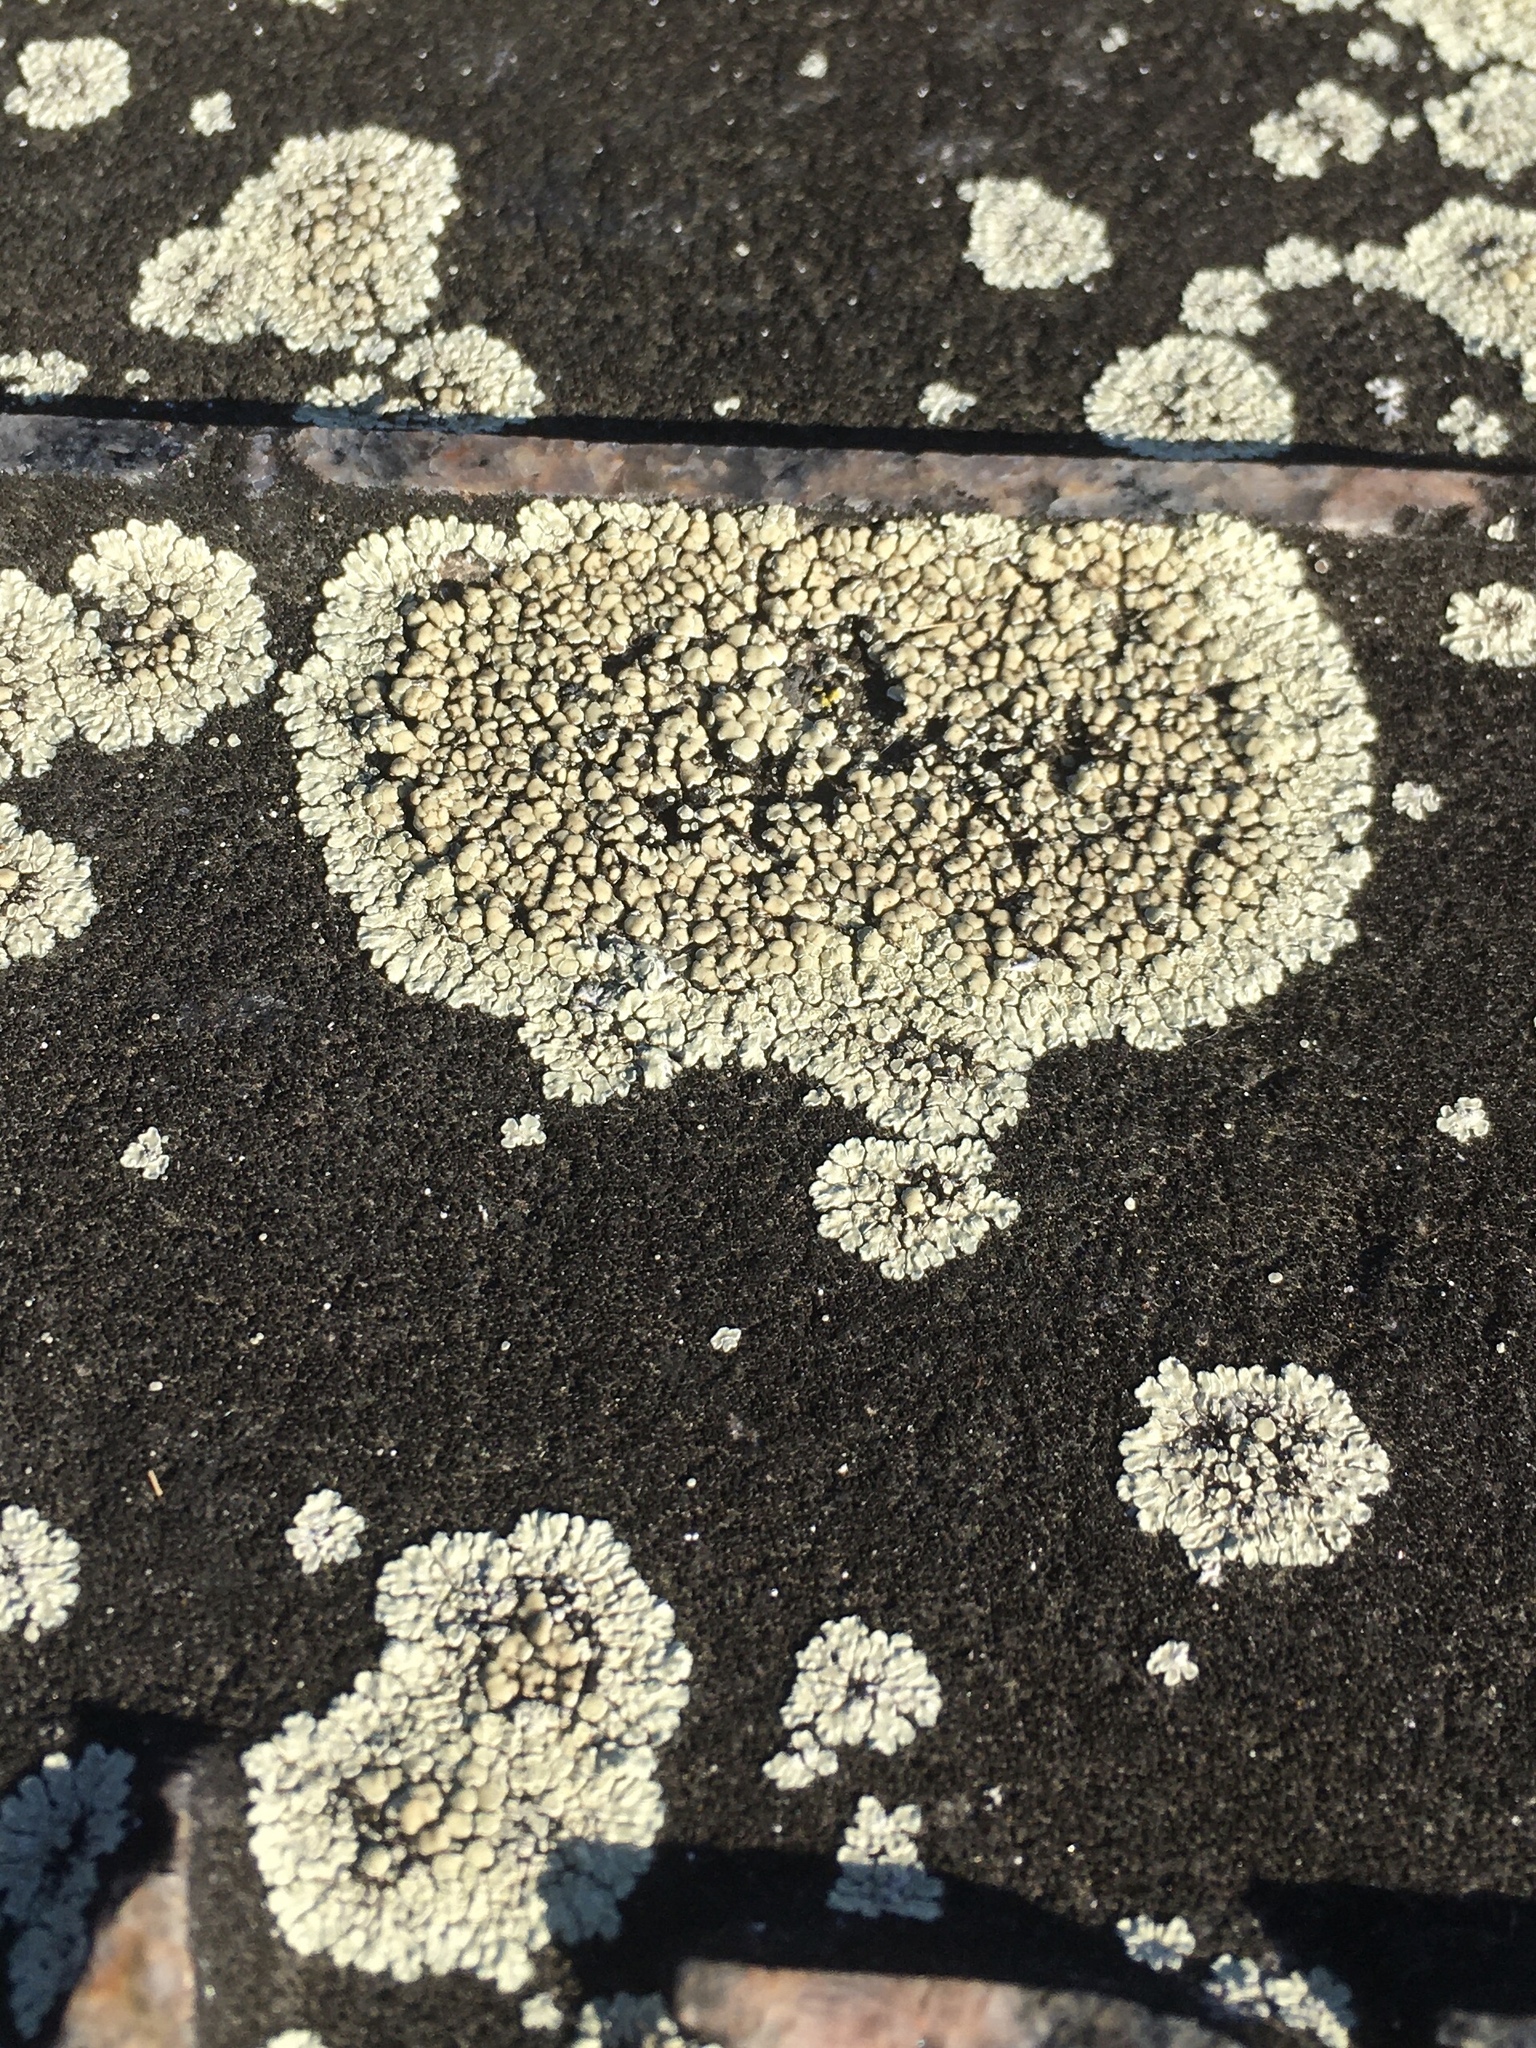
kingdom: Fungi
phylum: Ascomycota
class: Lecanoromycetes
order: Lecanorales
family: Lecanoraceae
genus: Protoparmeliopsis
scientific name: Protoparmeliopsis muralis
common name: Stonewall rim lichen
